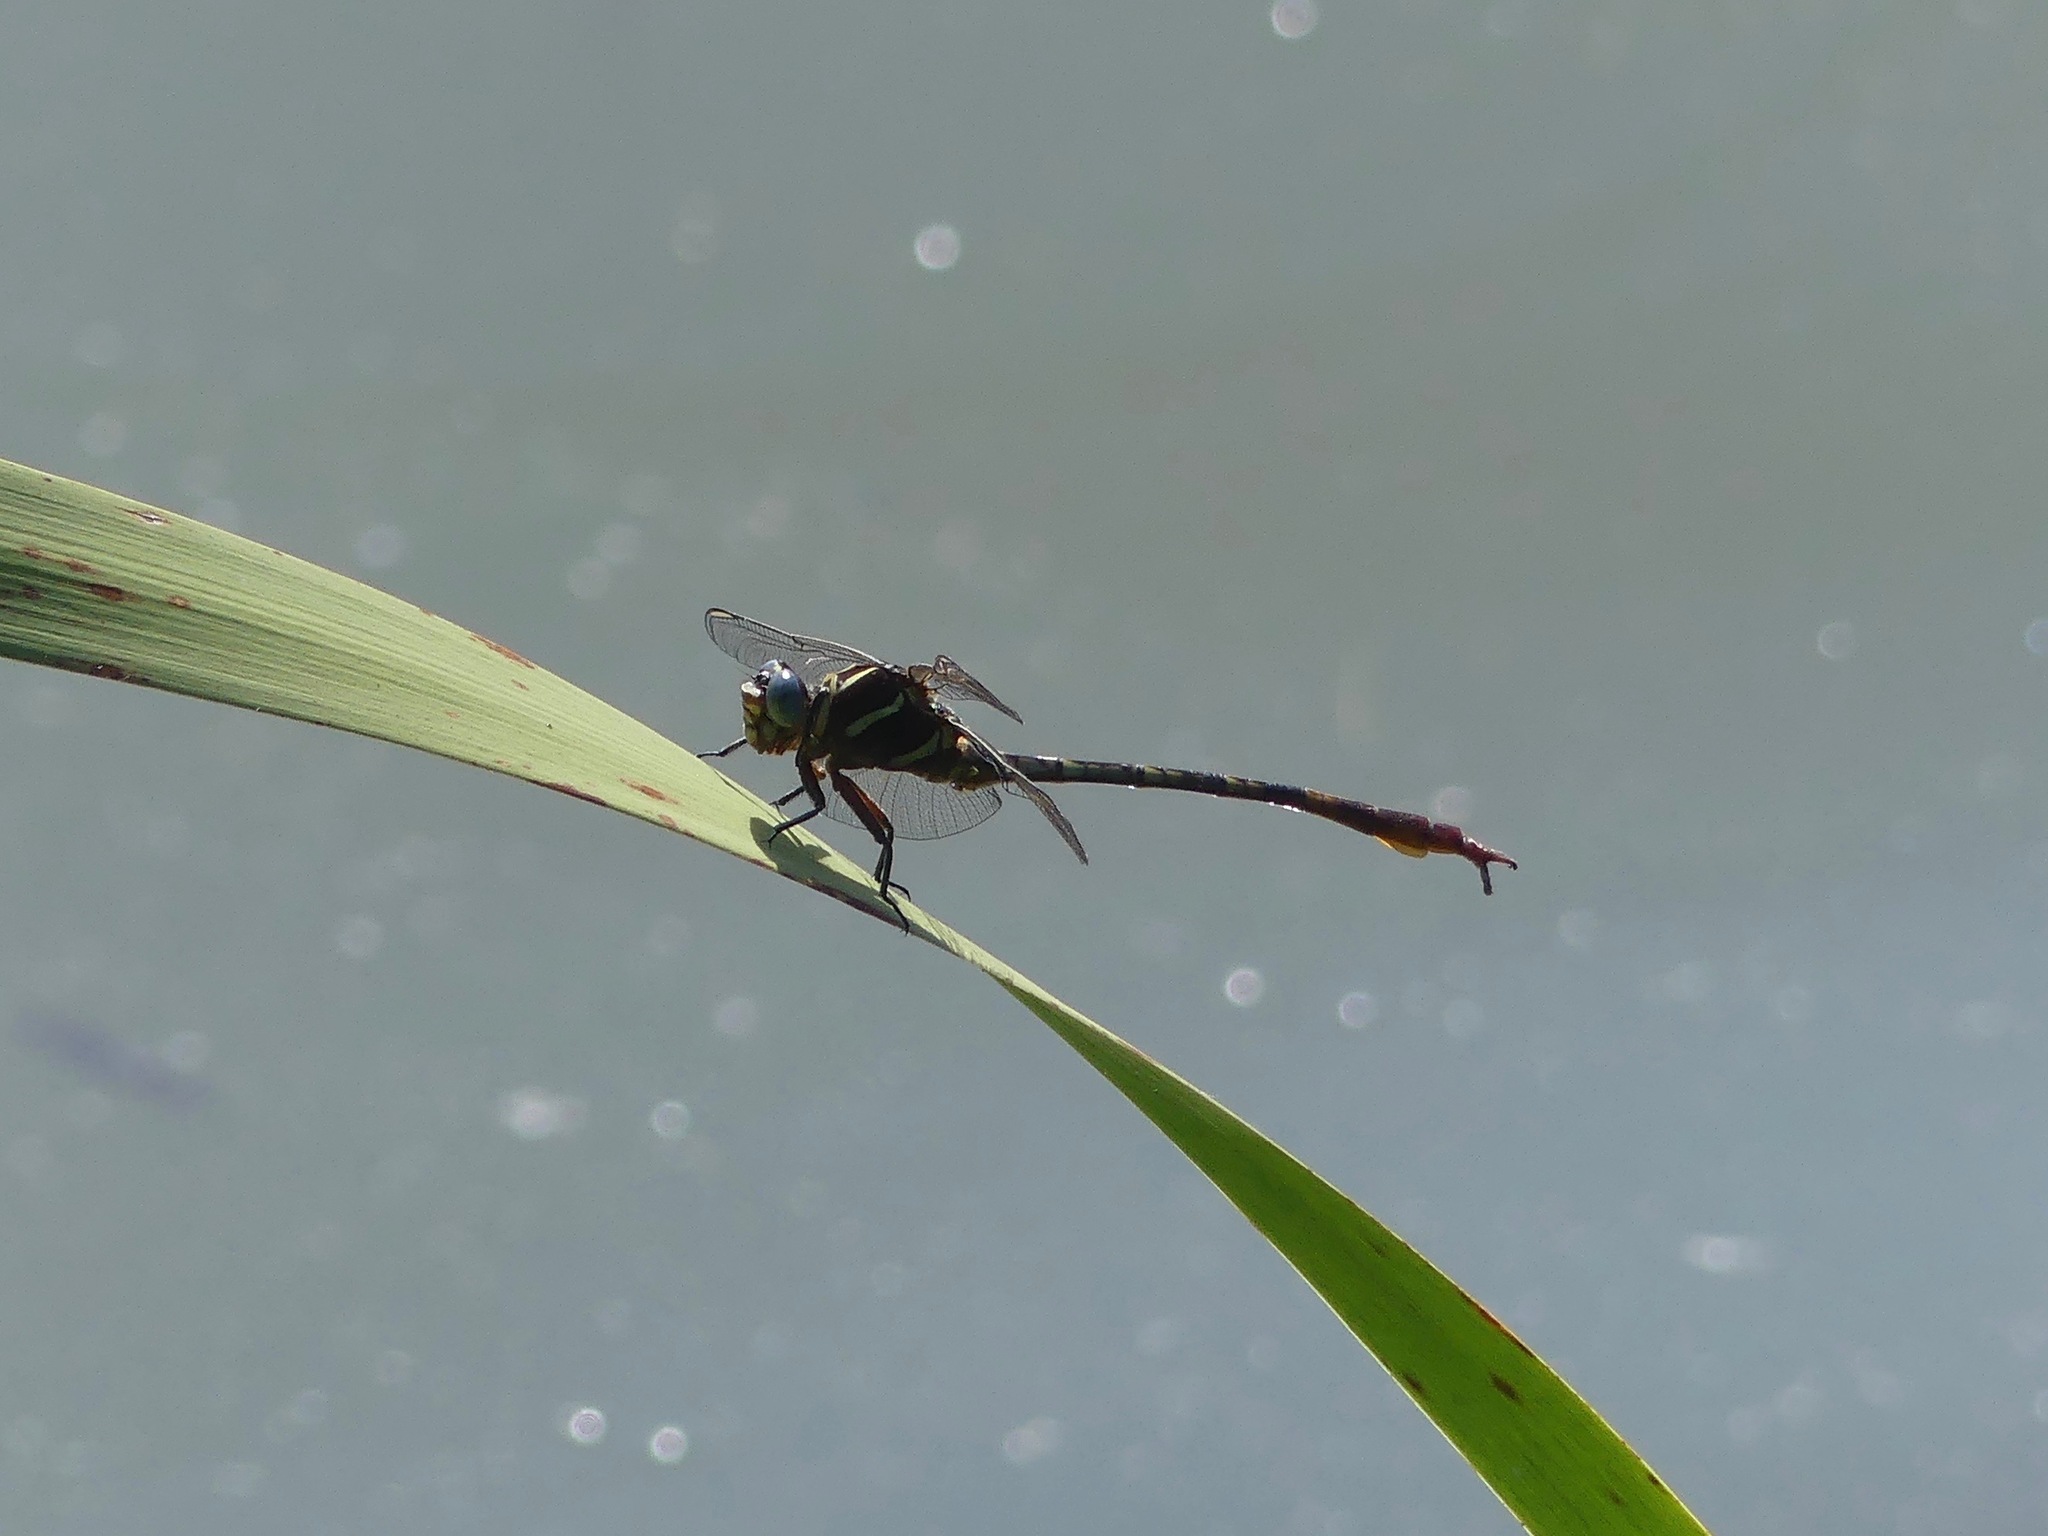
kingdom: Animalia
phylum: Arthropoda
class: Insecta
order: Odonata
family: Gomphidae
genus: Aphylla
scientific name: Aphylla williamsoni
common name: Two-striped forceptail
